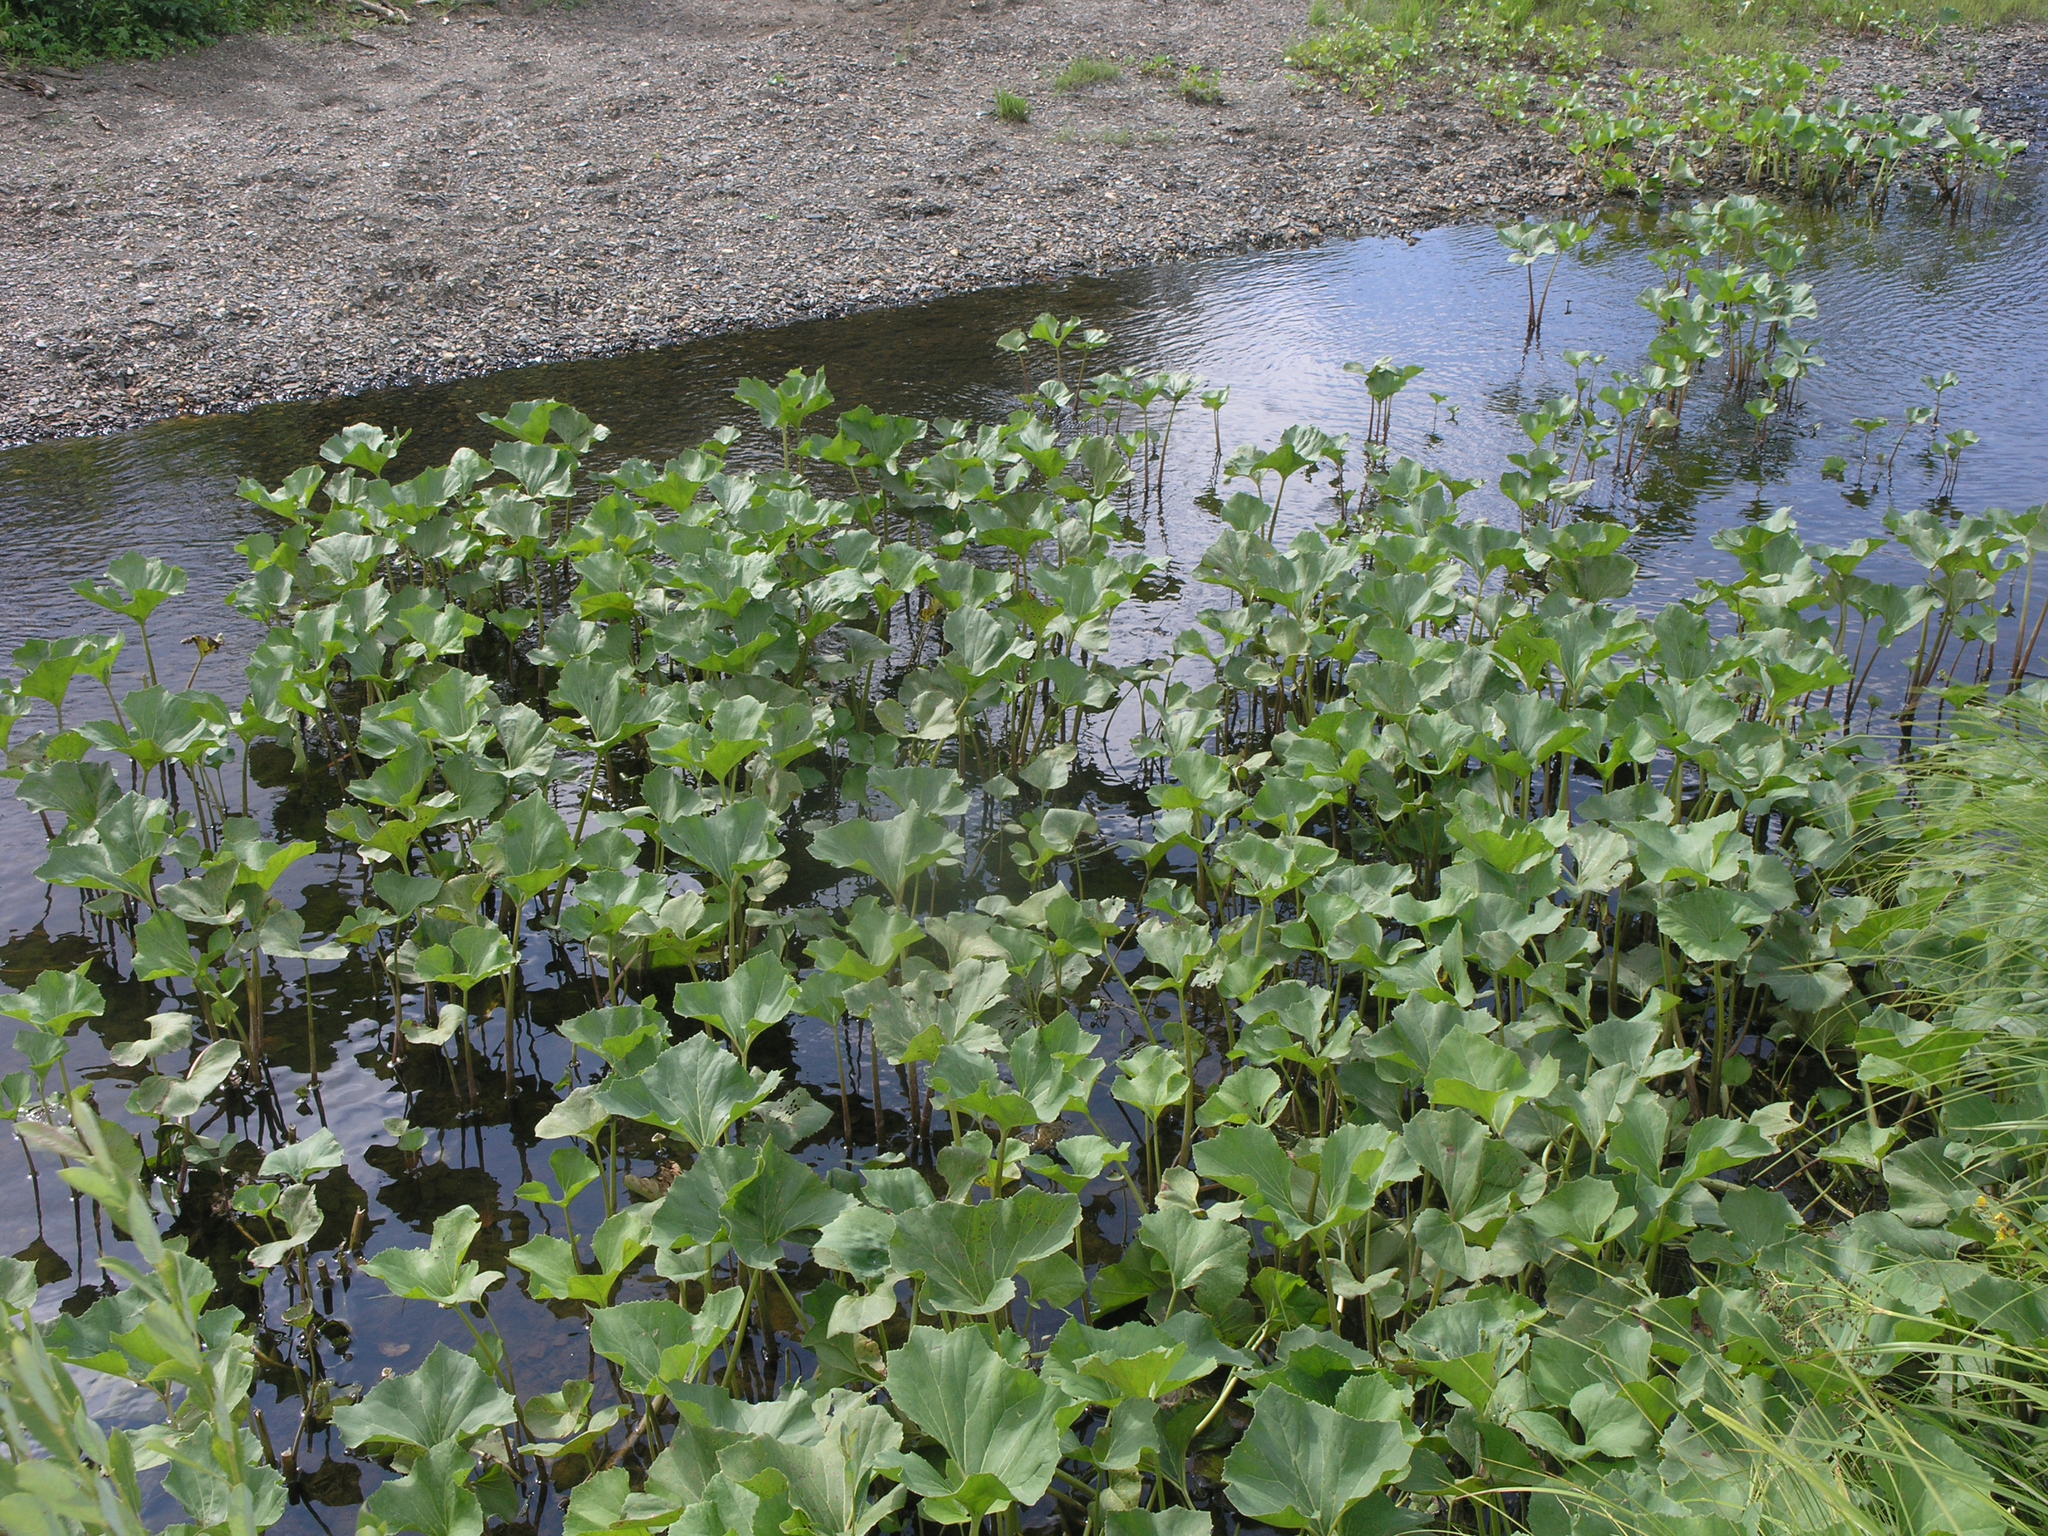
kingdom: Plantae
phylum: Tracheophyta
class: Magnoliopsida
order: Asterales
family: Asteraceae
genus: Petasites
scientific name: Petasites radiatus
